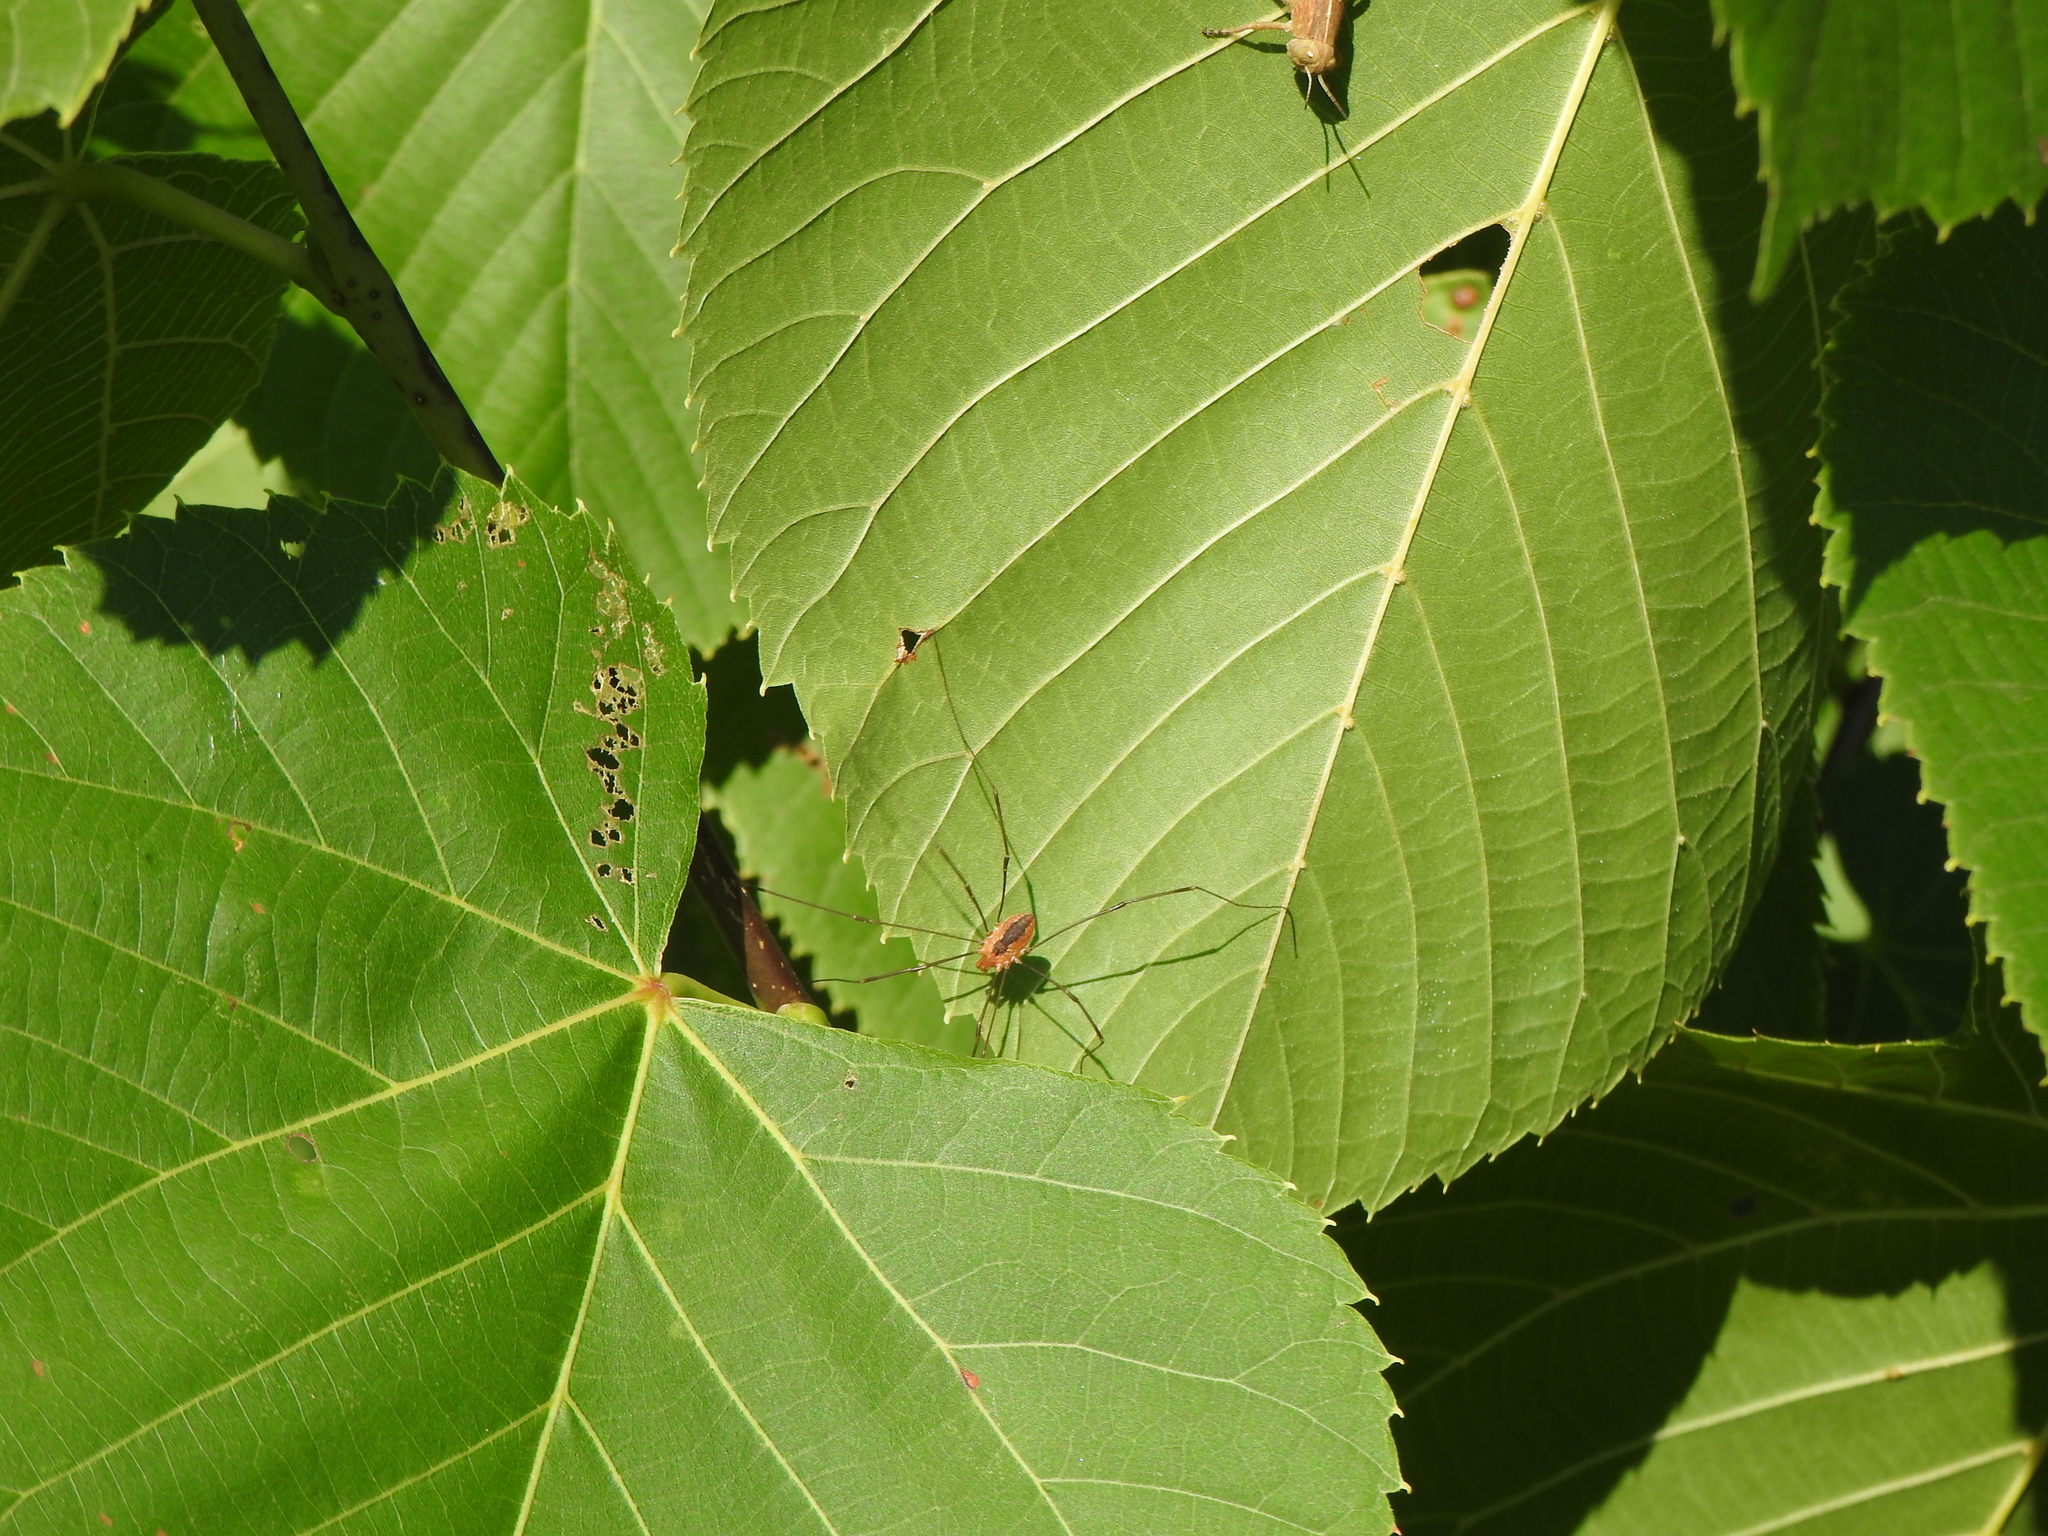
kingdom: Animalia
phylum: Arthropoda
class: Arachnida
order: Opiliones
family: Sclerosomatidae
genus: Leiobunum
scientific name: Leiobunum vittatum
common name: Eastern harvestman
